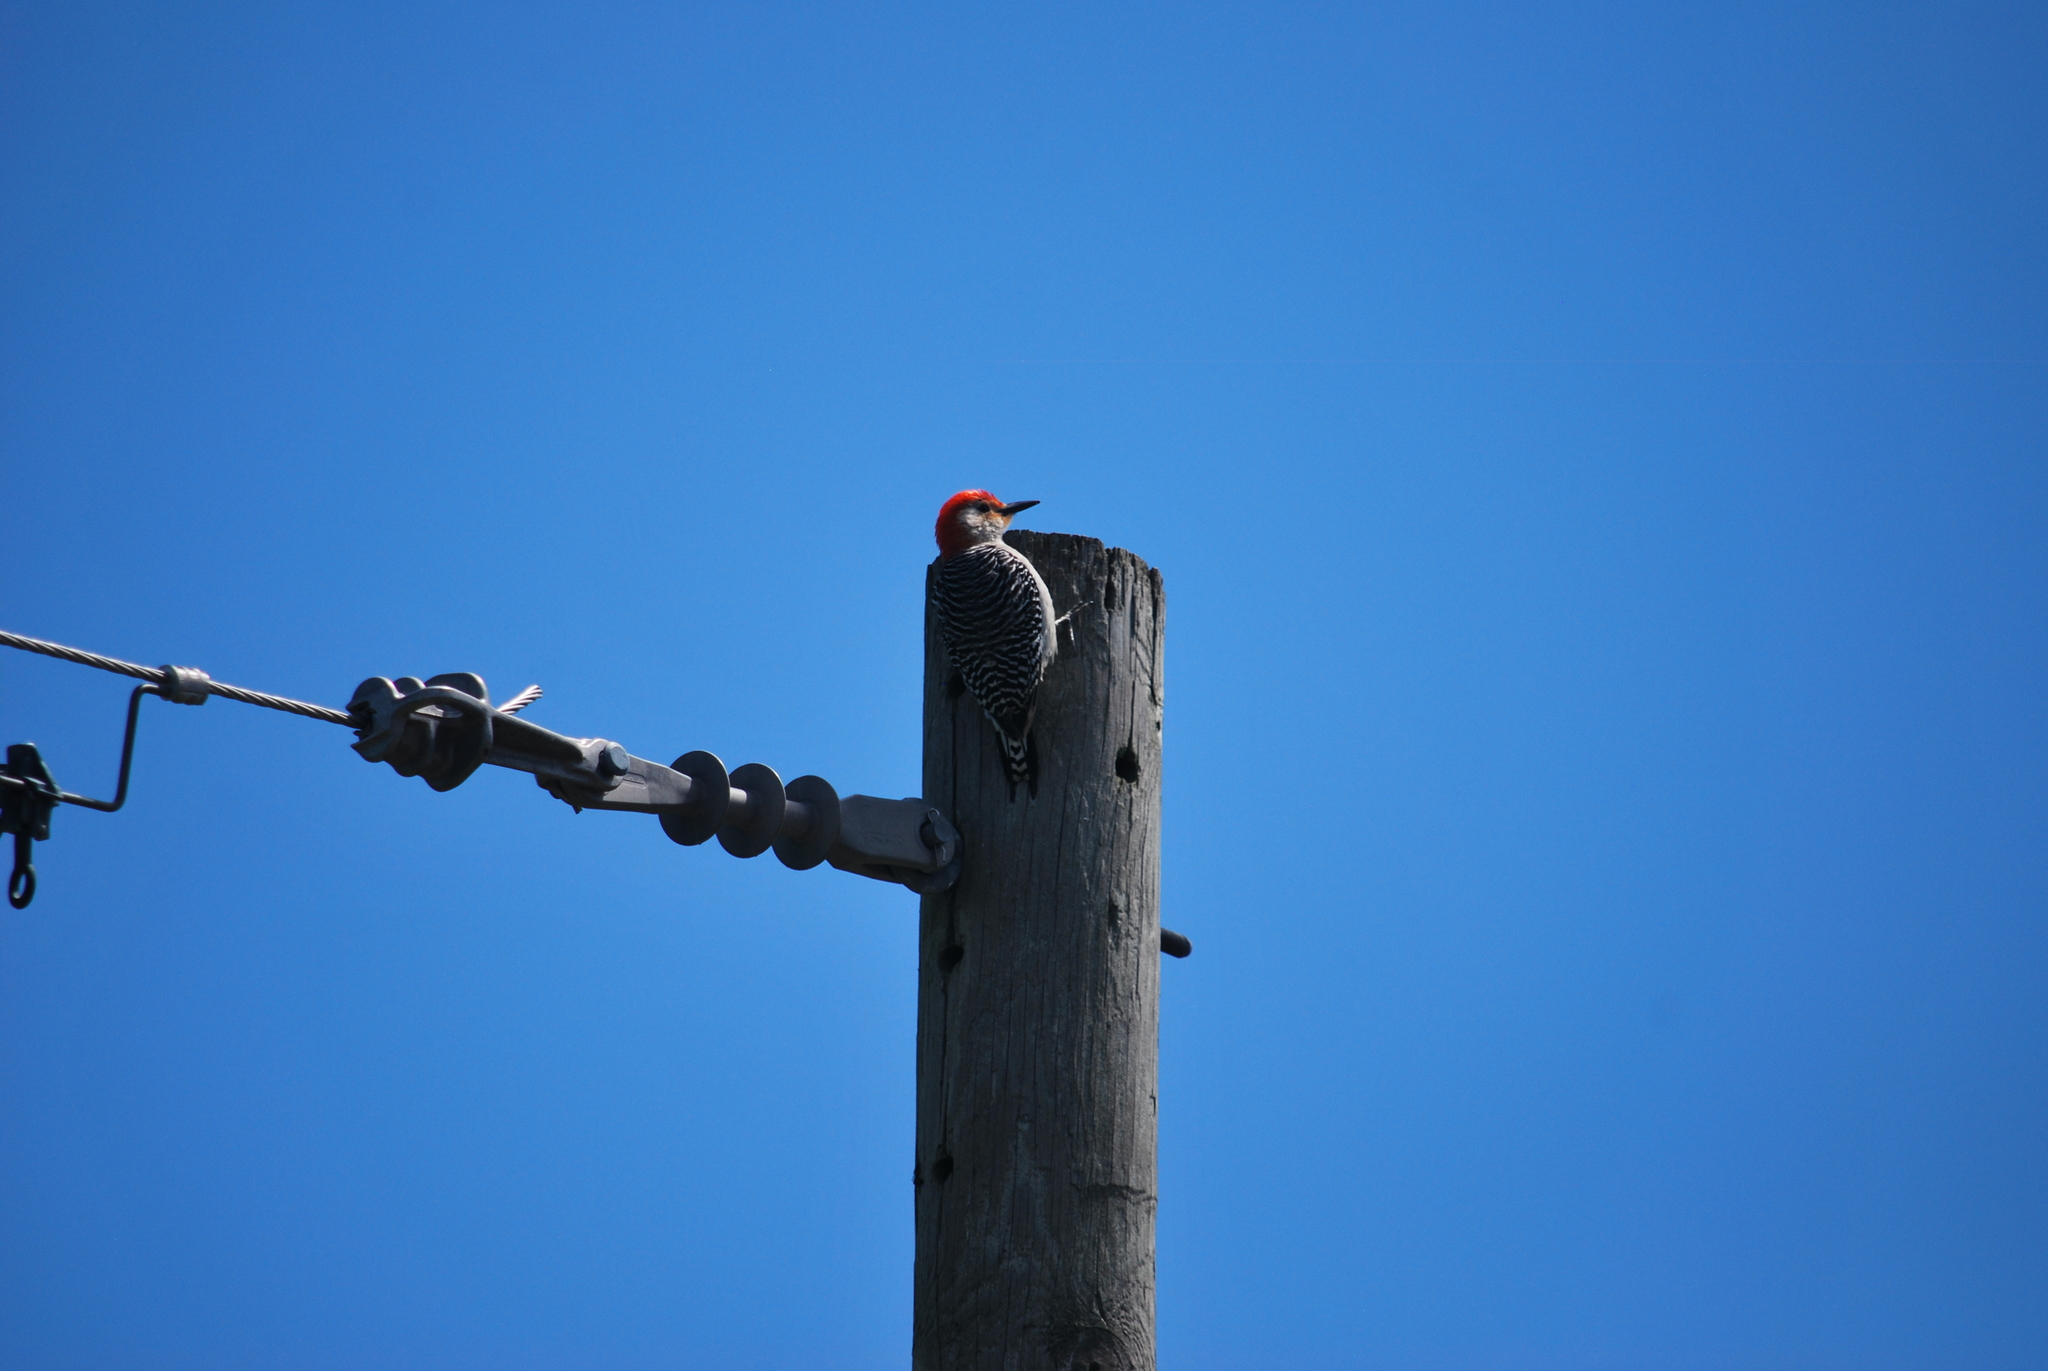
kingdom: Animalia
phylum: Chordata
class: Aves
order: Piciformes
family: Picidae
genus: Melanerpes
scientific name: Melanerpes carolinus
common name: Red-bellied woodpecker
